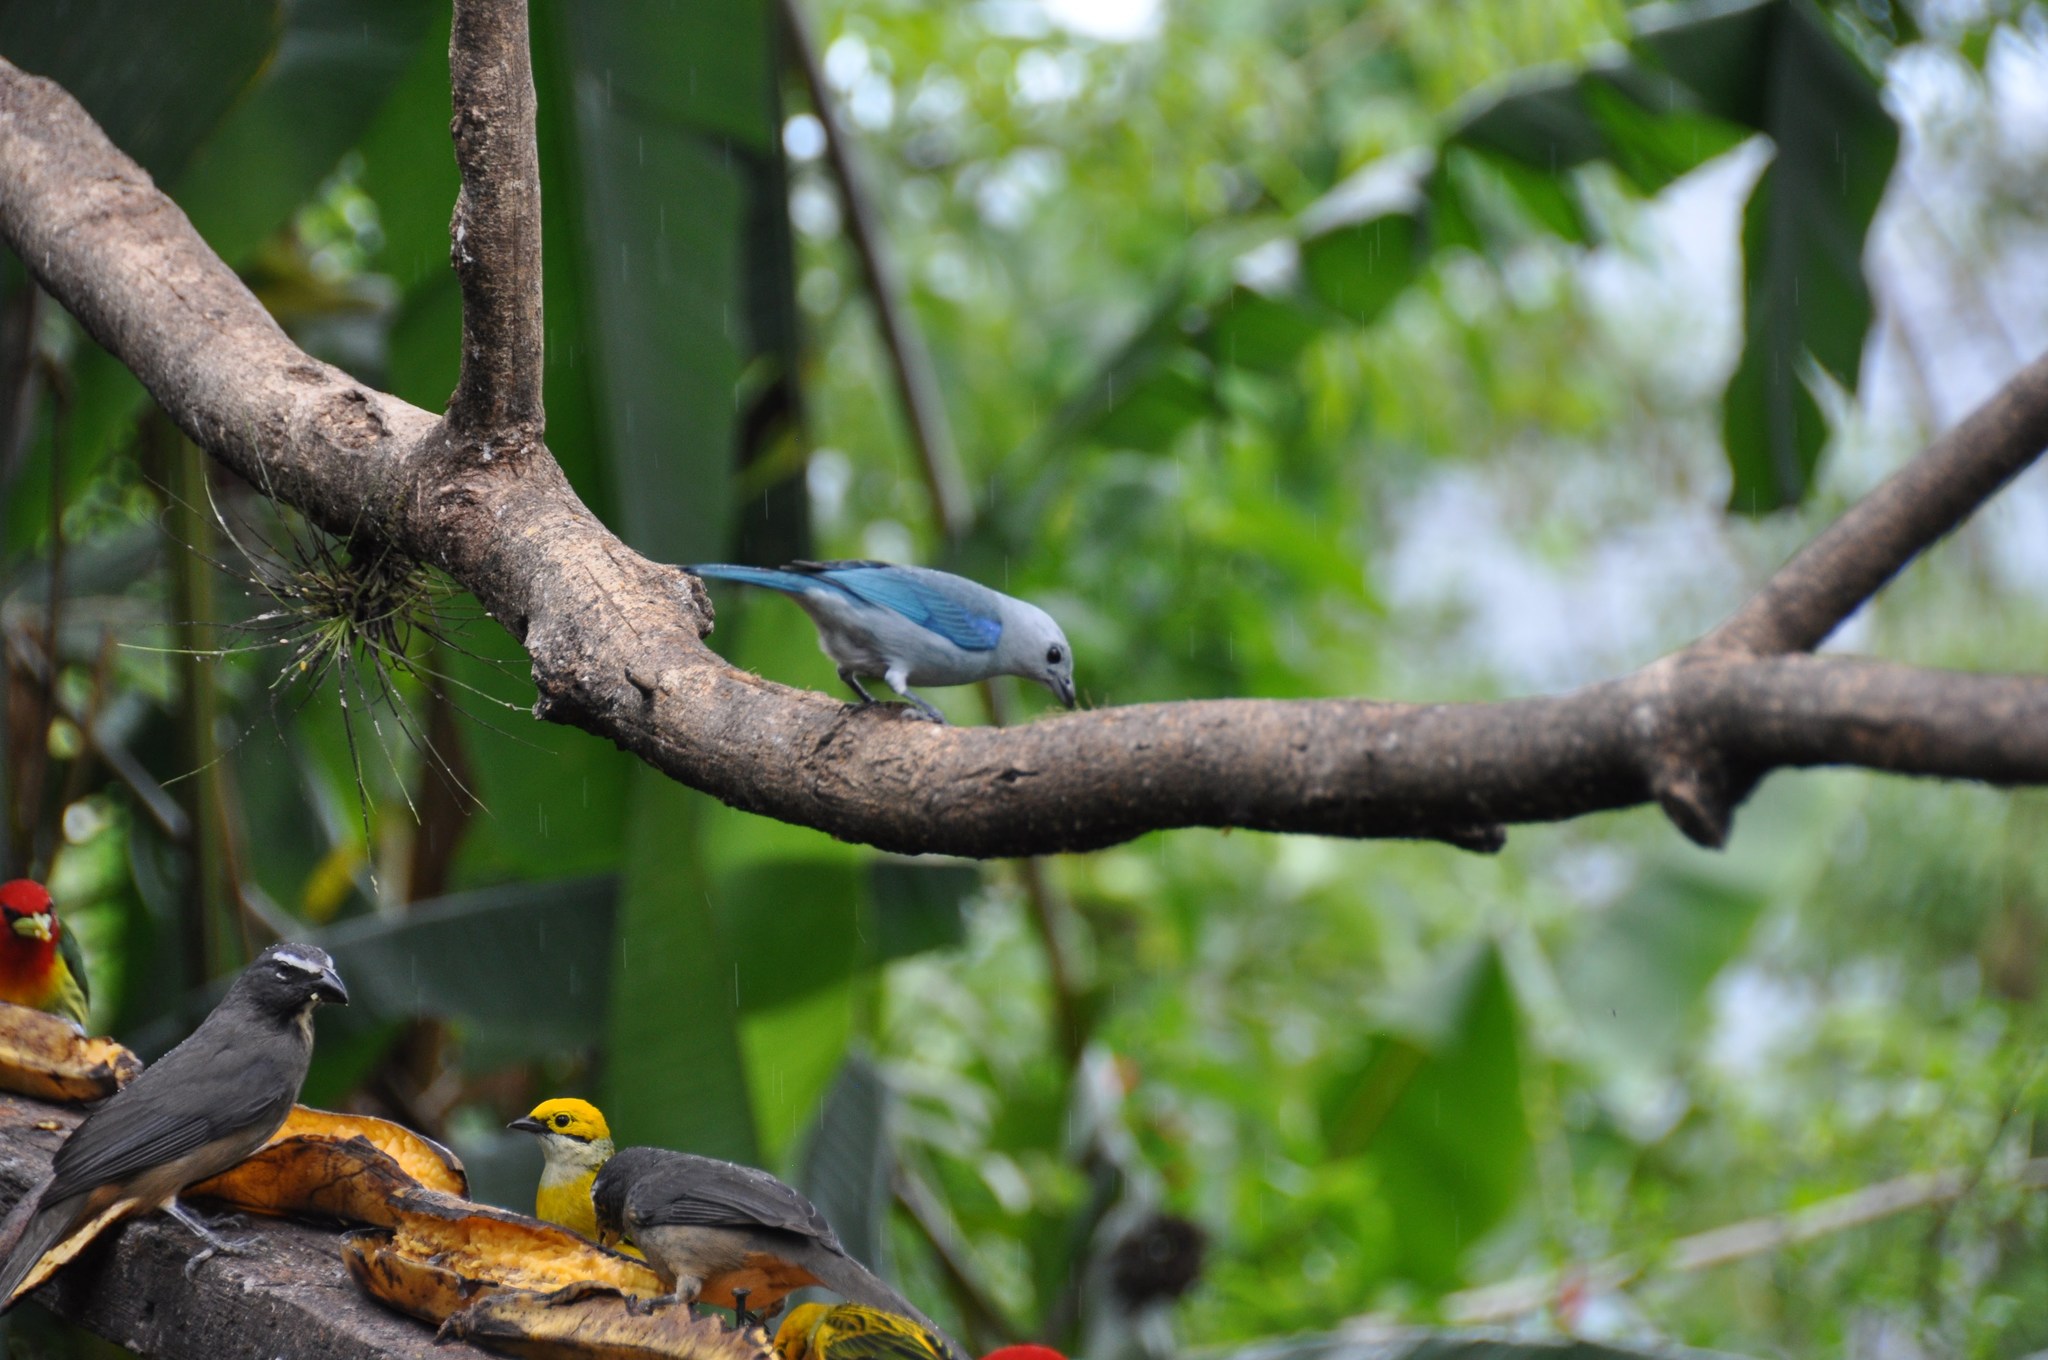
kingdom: Animalia
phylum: Chordata
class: Aves
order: Passeriformes
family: Thraupidae
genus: Thraupis
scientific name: Thraupis episcopus
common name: Blue-grey tanager
